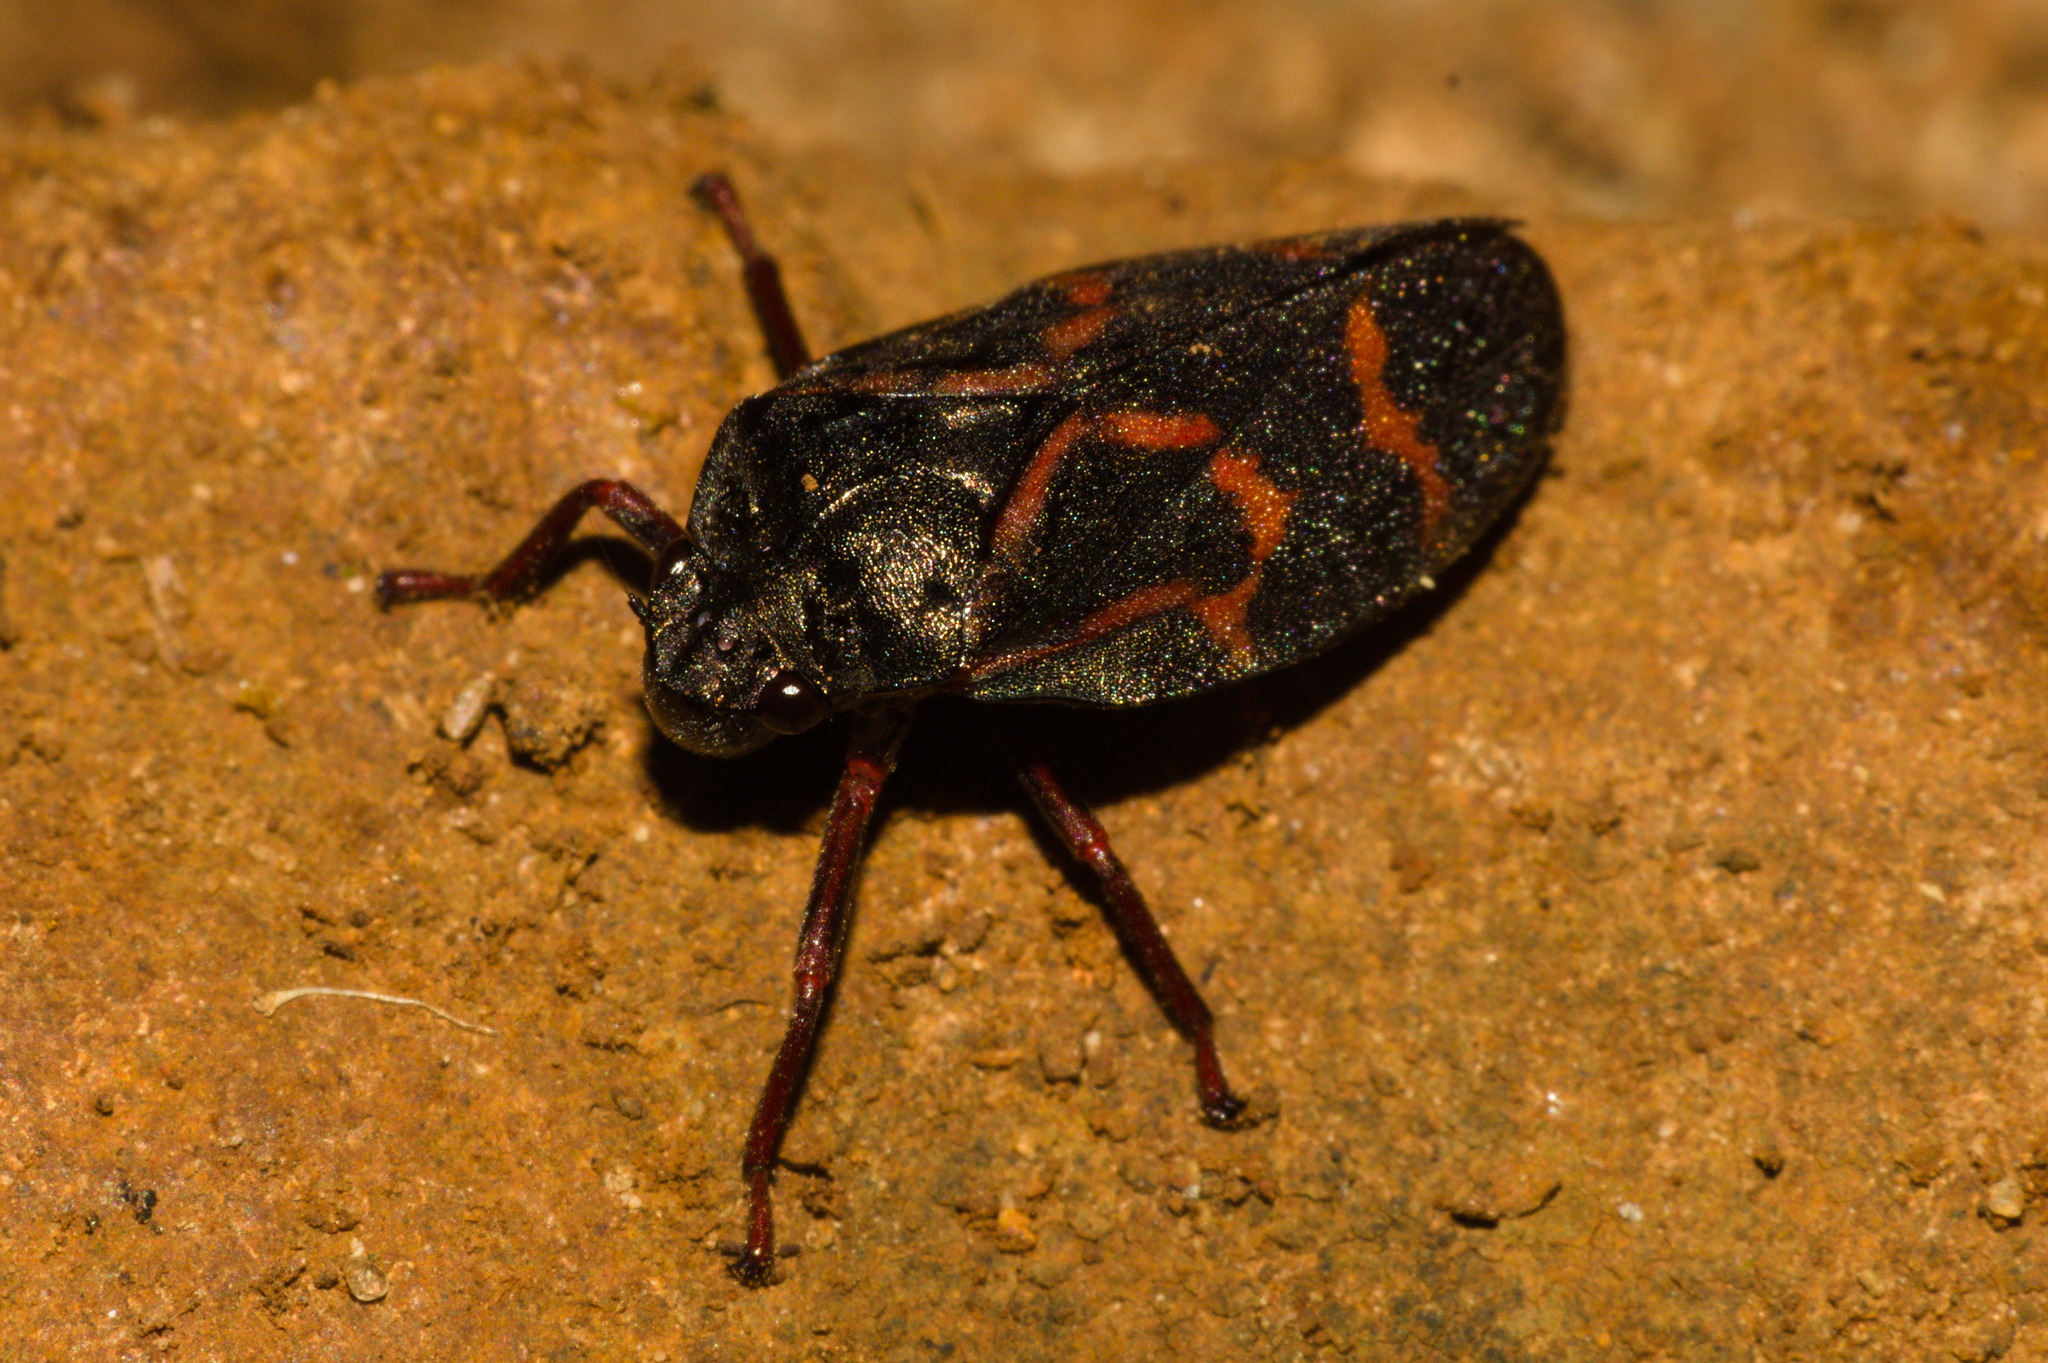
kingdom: Animalia
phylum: Arthropoda
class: Insecta
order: Hemiptera
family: Cercopidae
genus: Deois
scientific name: Deois flexuosa
